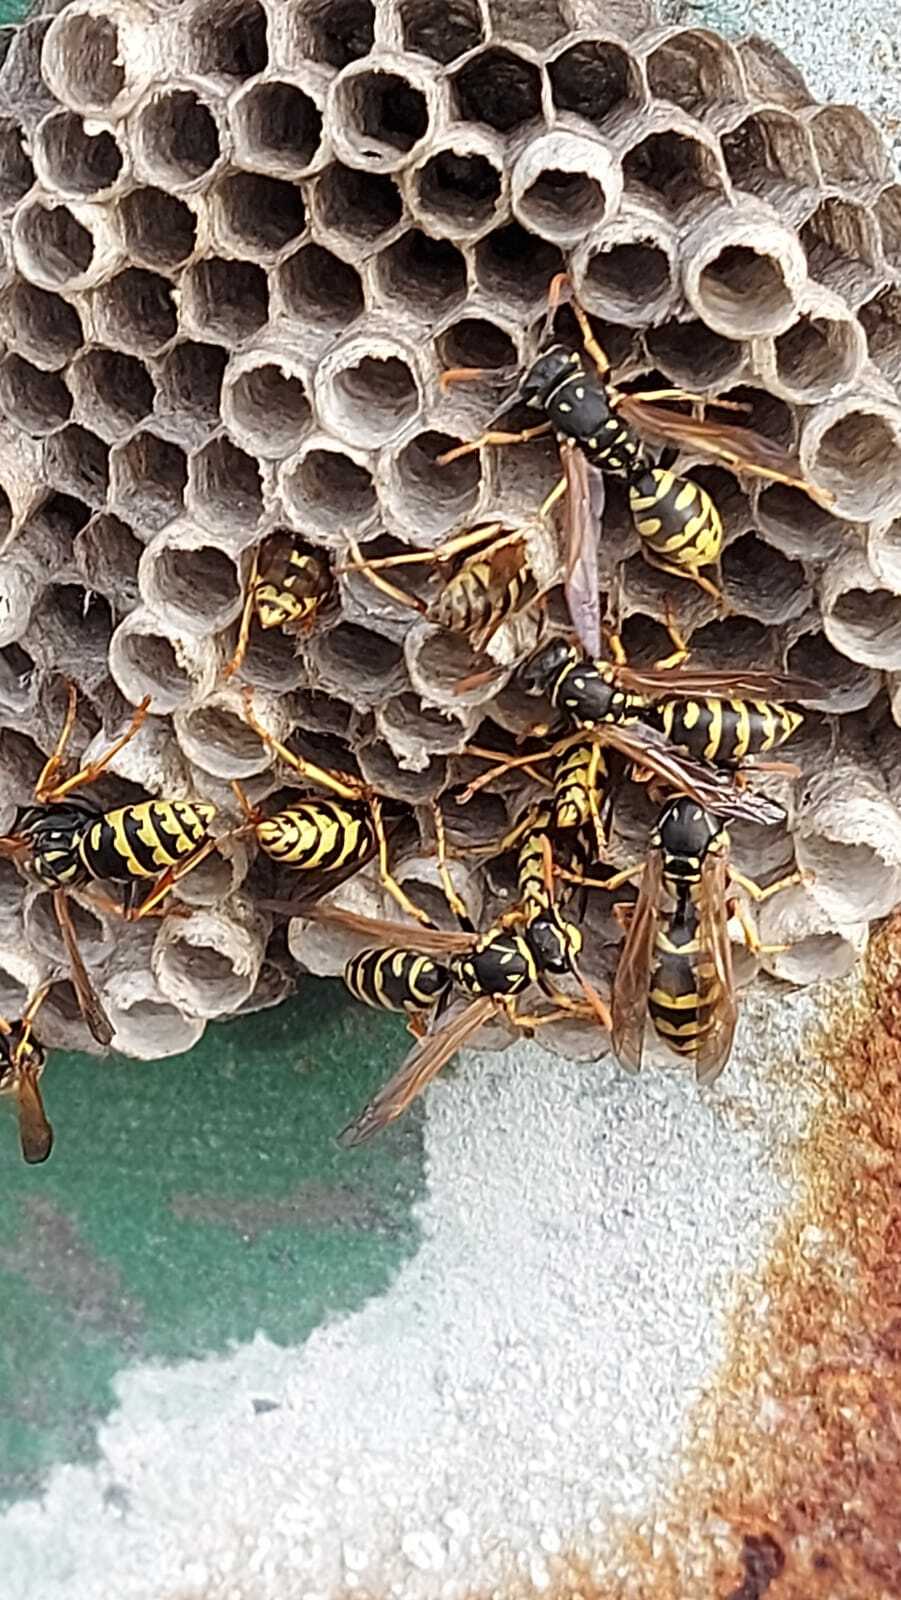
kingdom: Animalia
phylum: Arthropoda
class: Insecta
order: Hymenoptera
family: Eumenidae
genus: Polistes
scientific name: Polistes dominula
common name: Paper wasp
